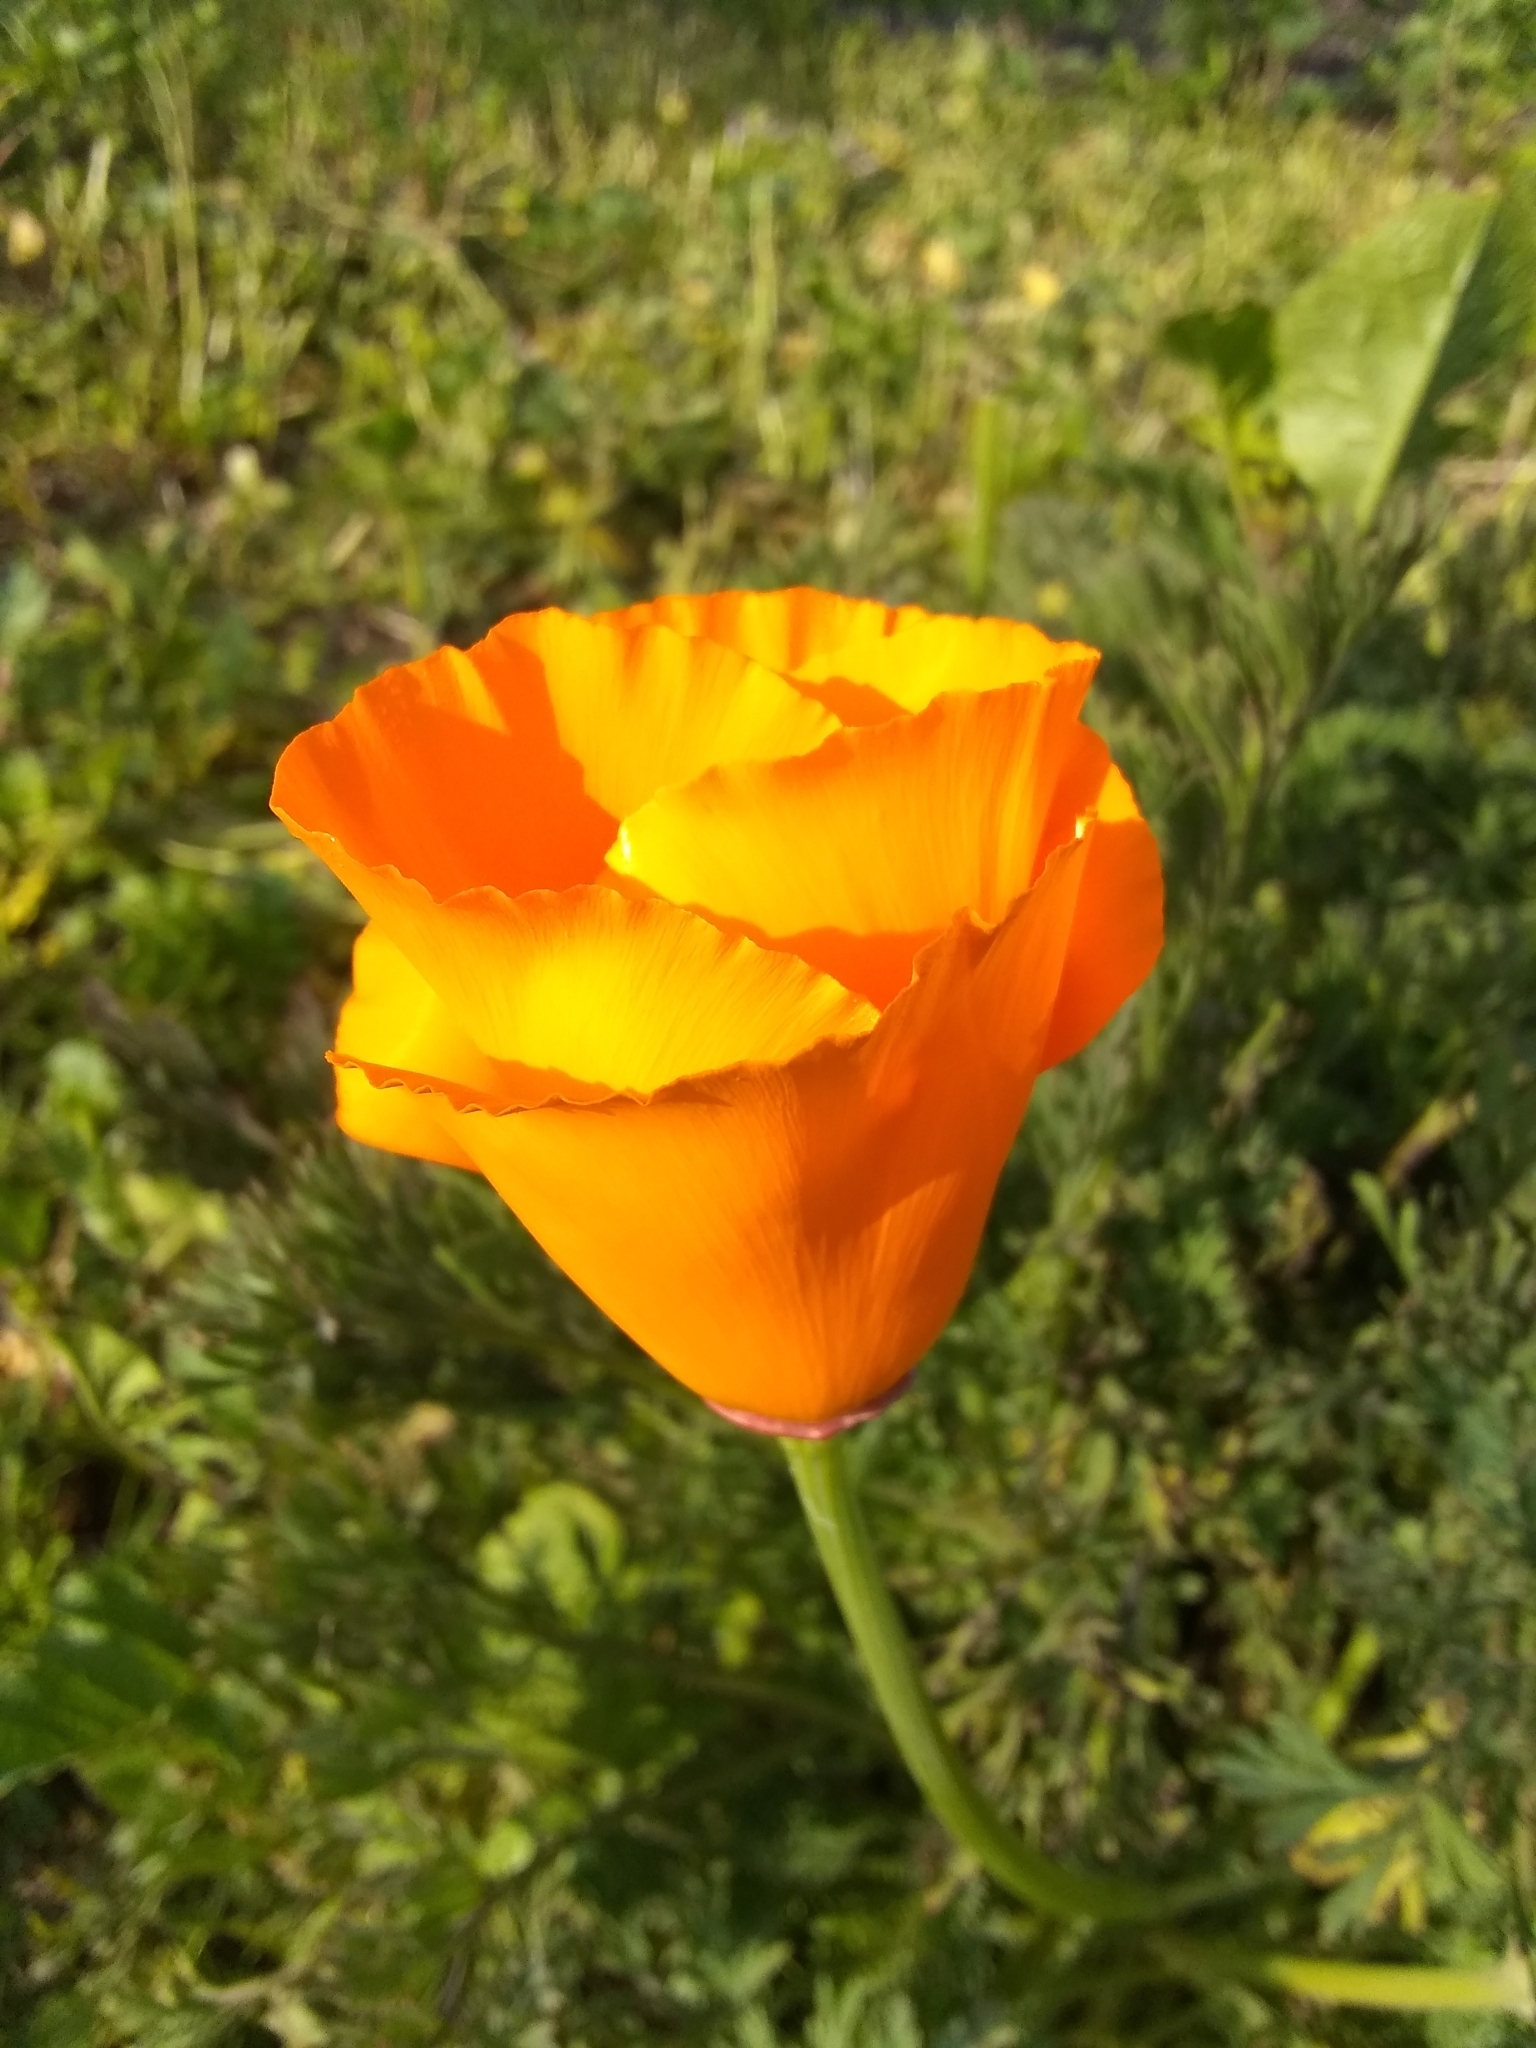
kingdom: Plantae
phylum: Tracheophyta
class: Magnoliopsida
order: Ranunculales
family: Papaveraceae
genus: Eschscholzia
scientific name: Eschscholzia californica
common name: California poppy
